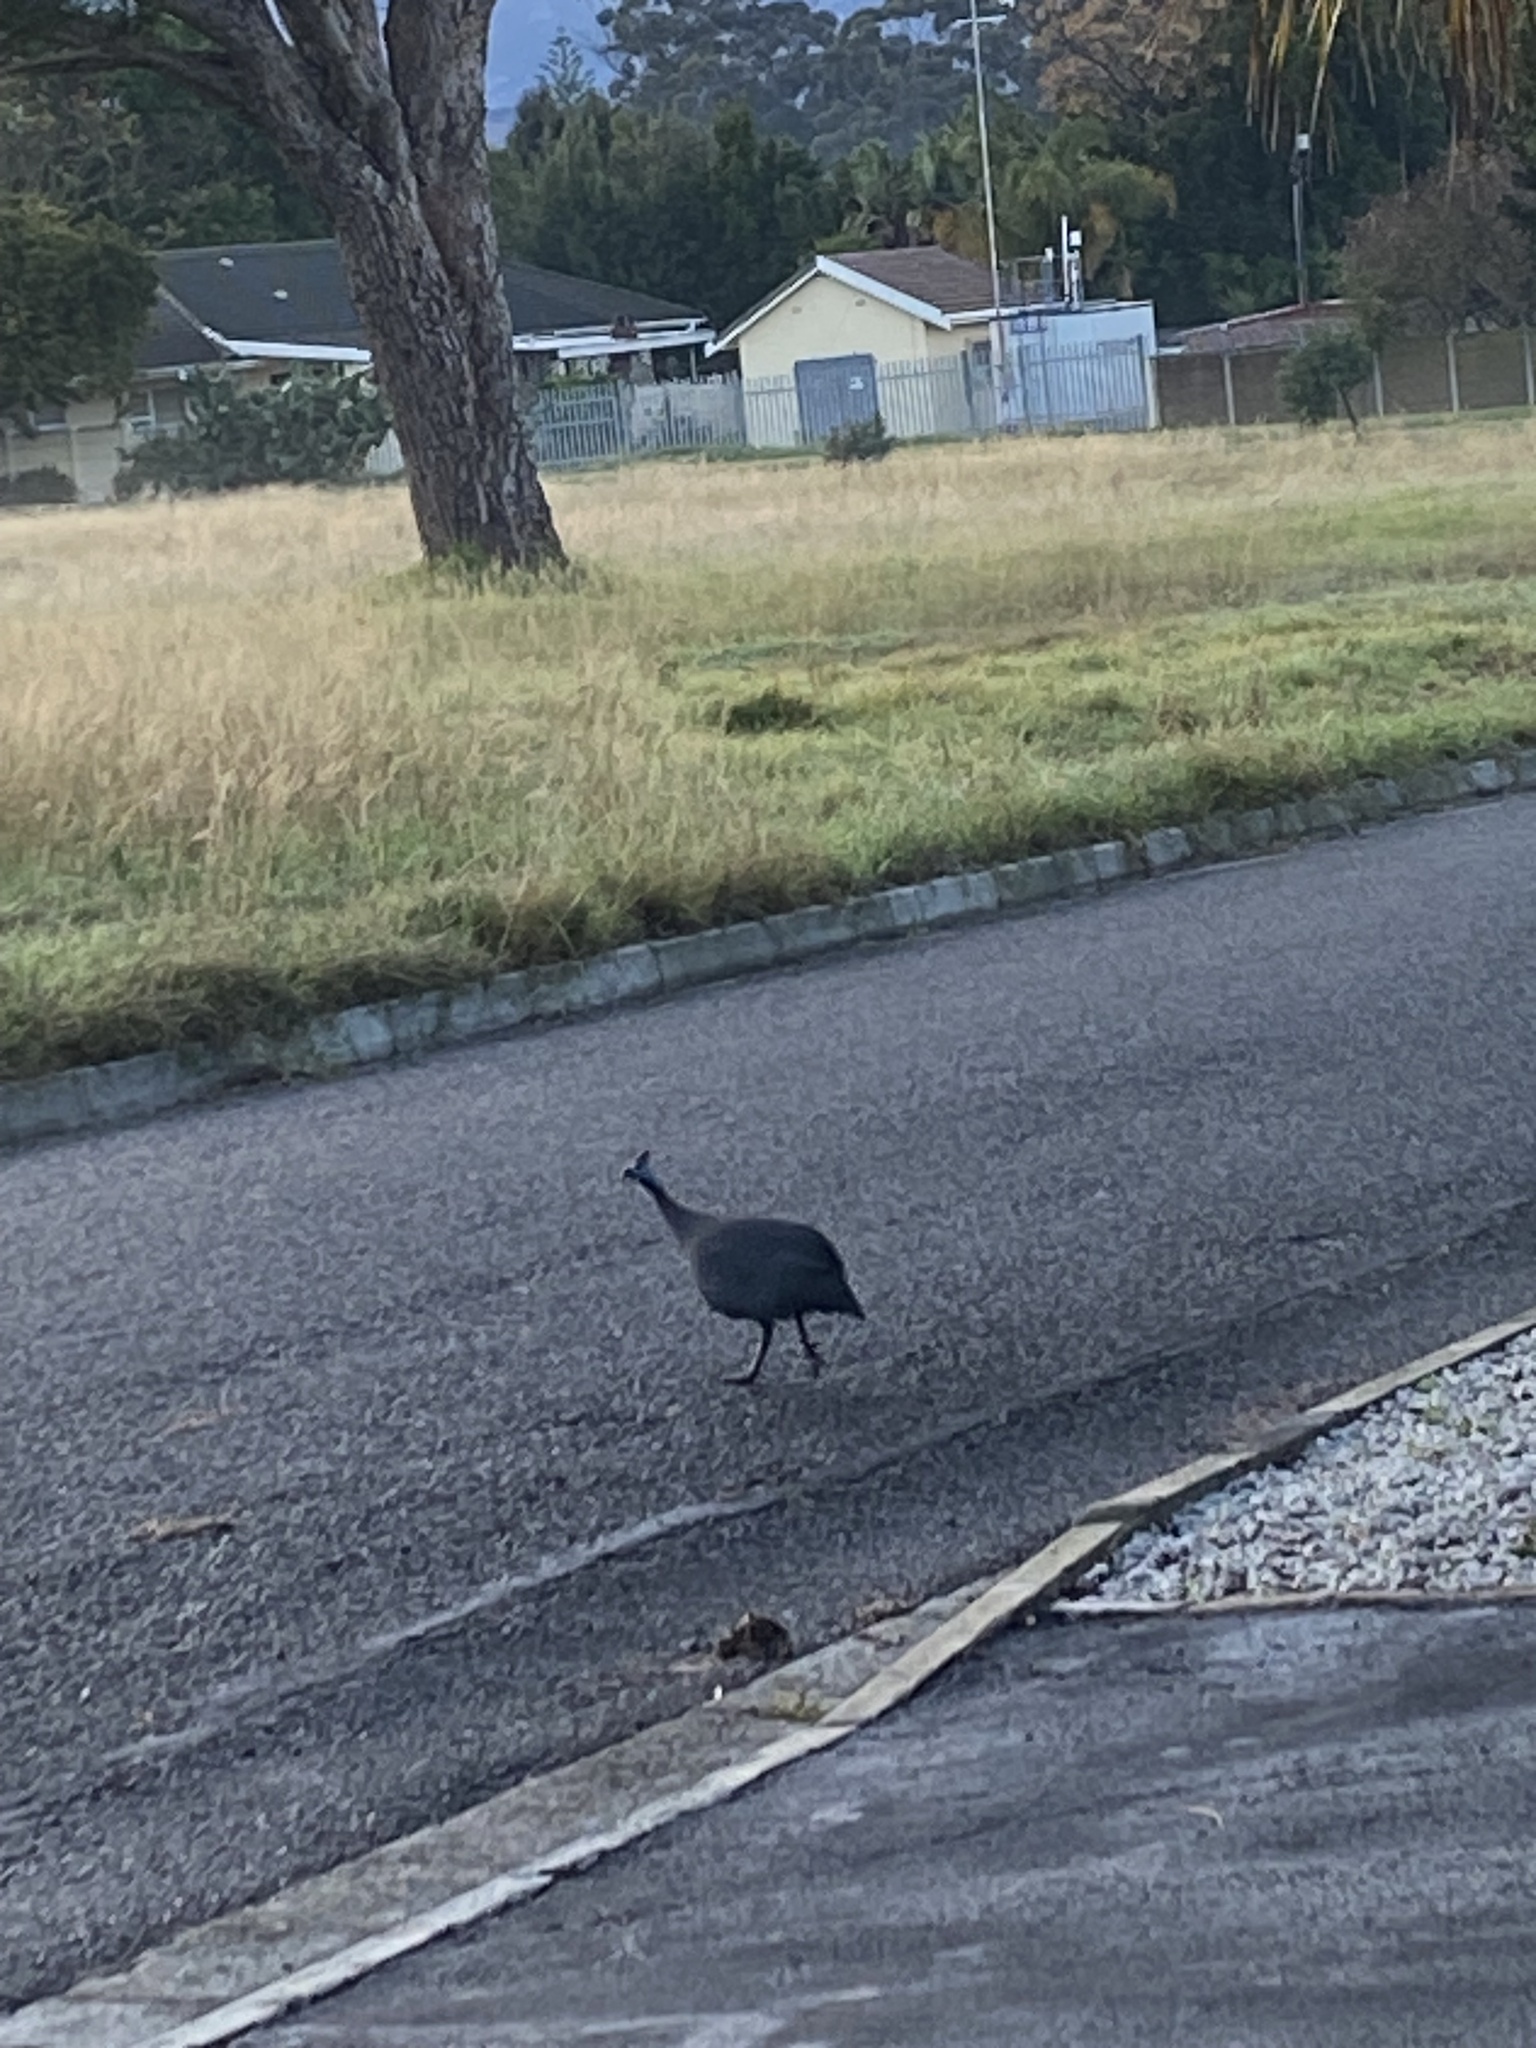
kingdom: Animalia
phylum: Chordata
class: Aves
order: Galliformes
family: Numididae
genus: Numida
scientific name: Numida meleagris
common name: Helmeted guineafowl
